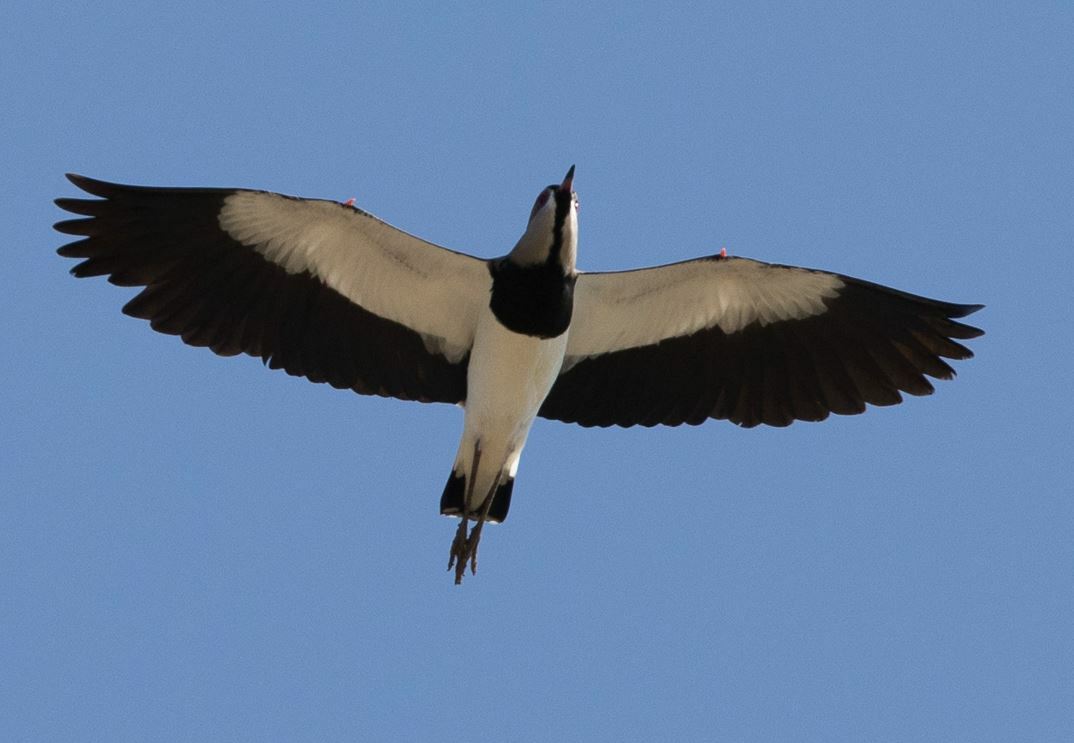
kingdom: Animalia
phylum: Chordata
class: Aves
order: Charadriiformes
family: Charadriidae
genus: Vanellus
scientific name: Vanellus chilensis
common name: Southern lapwing
